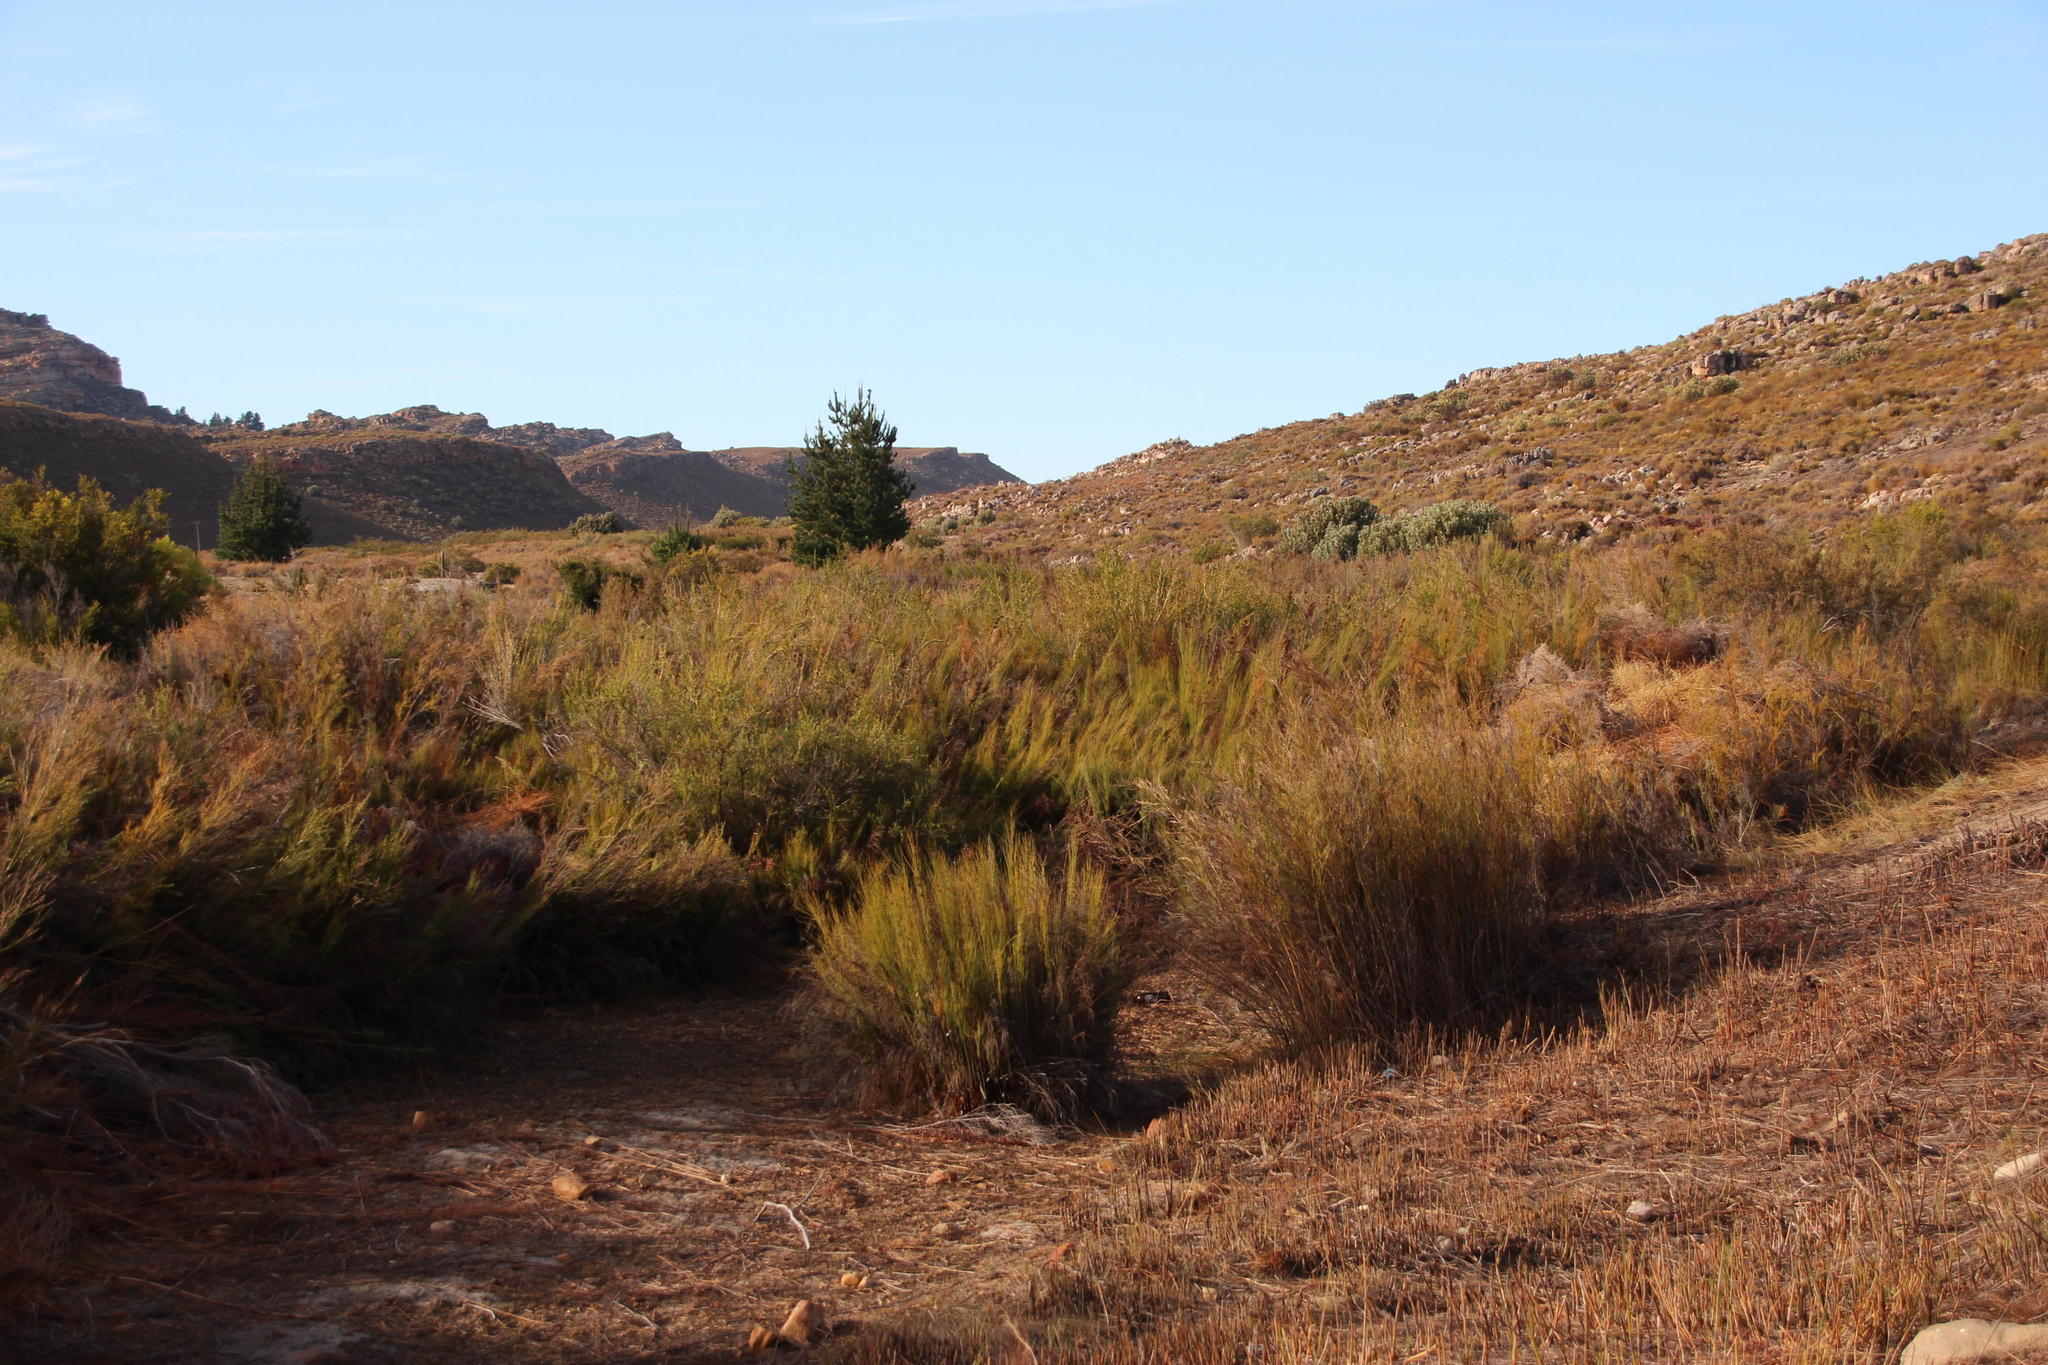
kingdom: Plantae
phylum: Tracheophyta
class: Liliopsida
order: Poales
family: Restionaceae
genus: Rhodocoma
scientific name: Rhodocoma capensis
